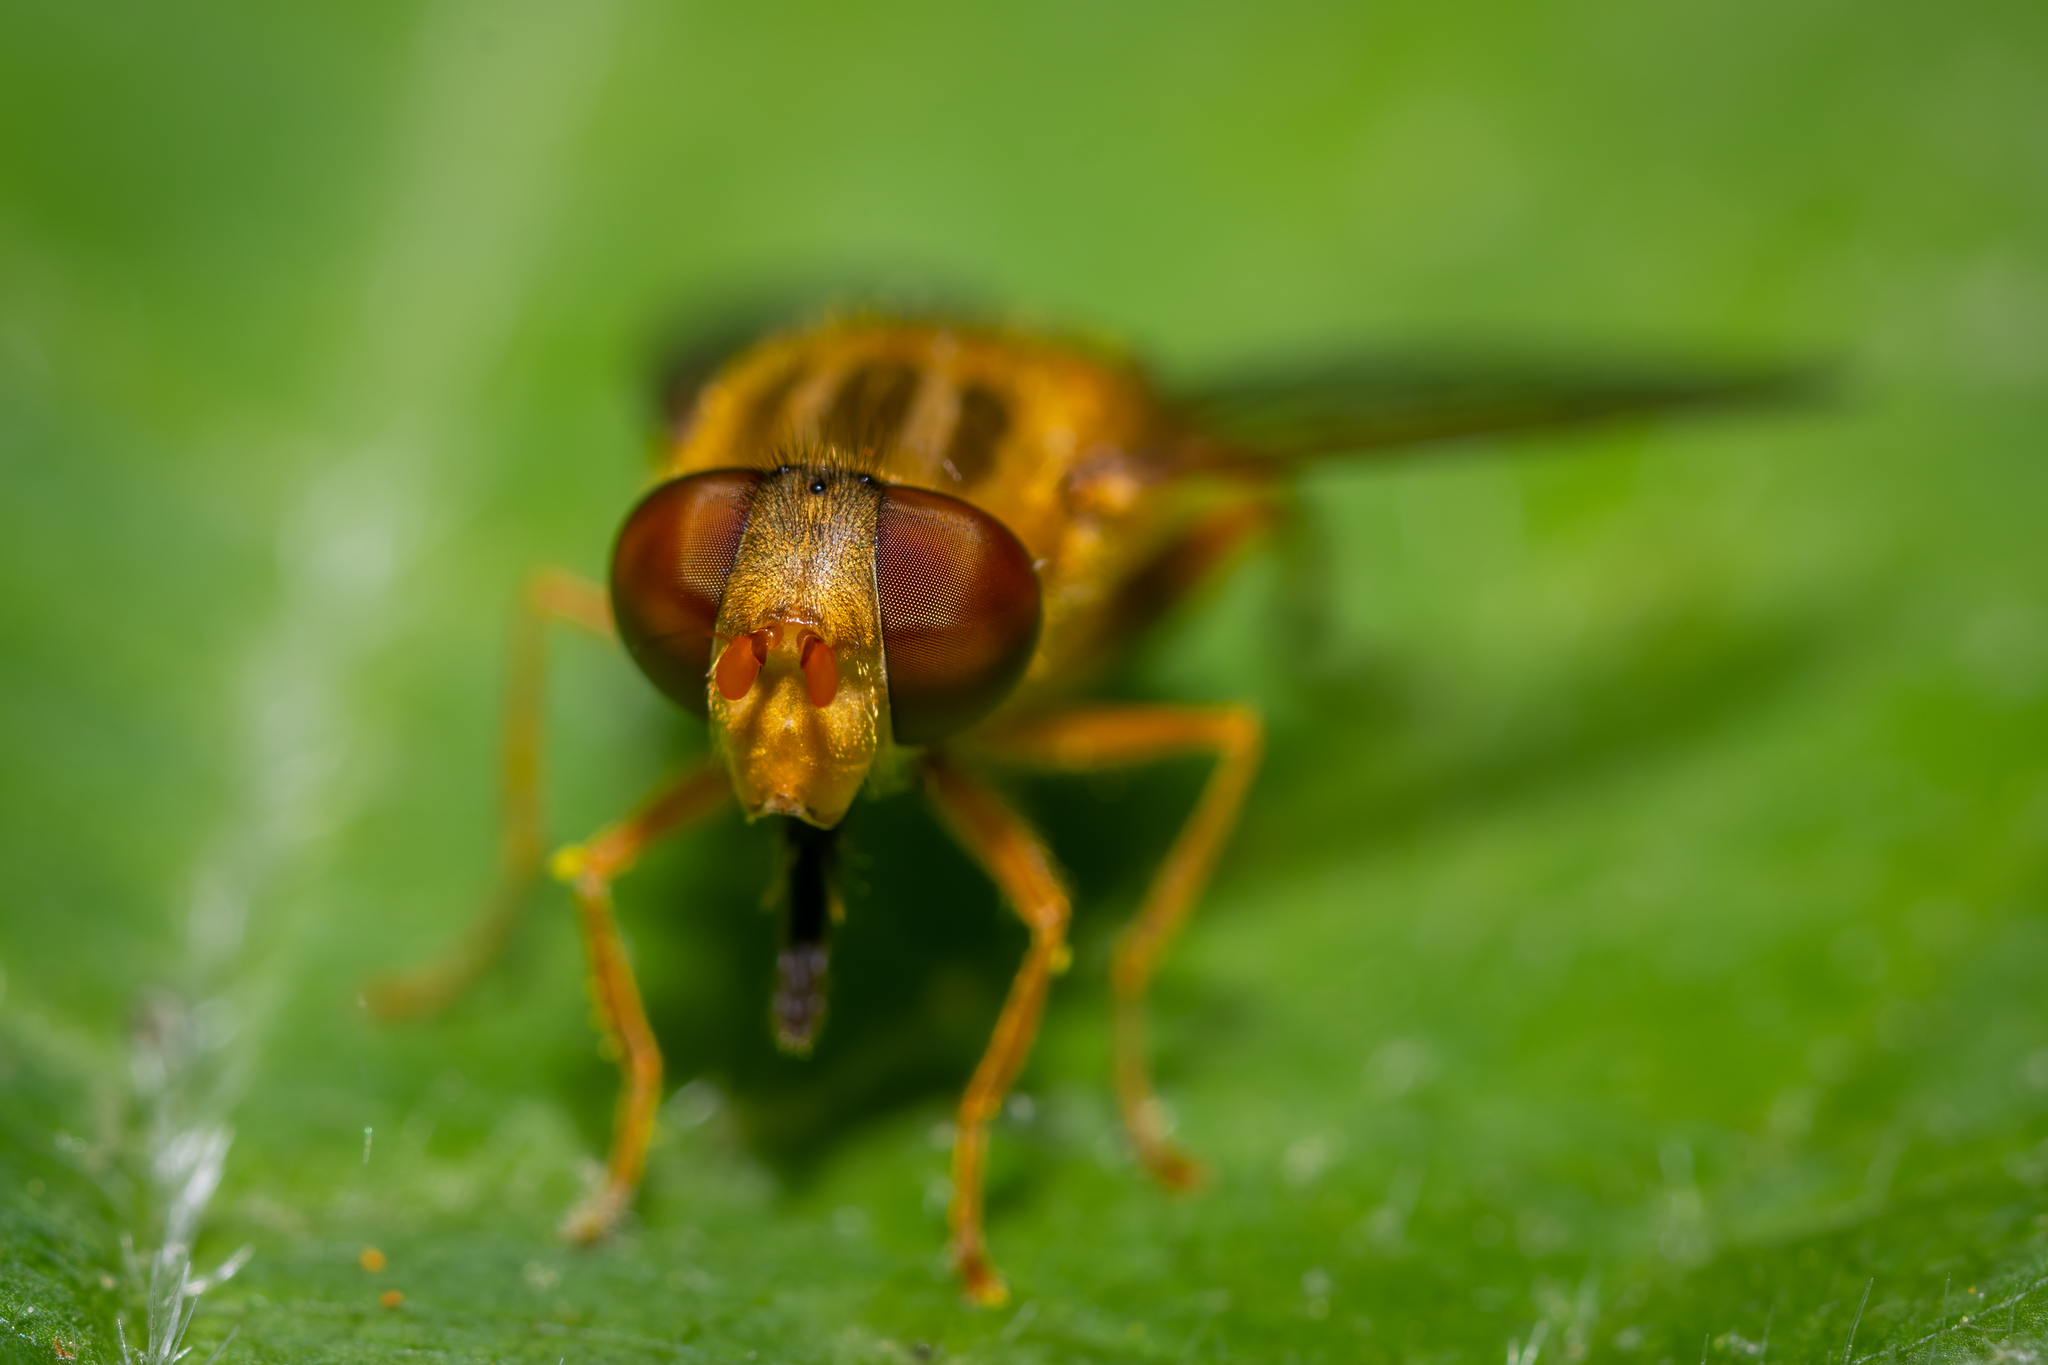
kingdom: Animalia
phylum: Arthropoda
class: Insecta
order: Diptera
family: Syrphidae
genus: Parhelophilus
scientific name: Parhelophilus laetus
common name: Common bog fly
